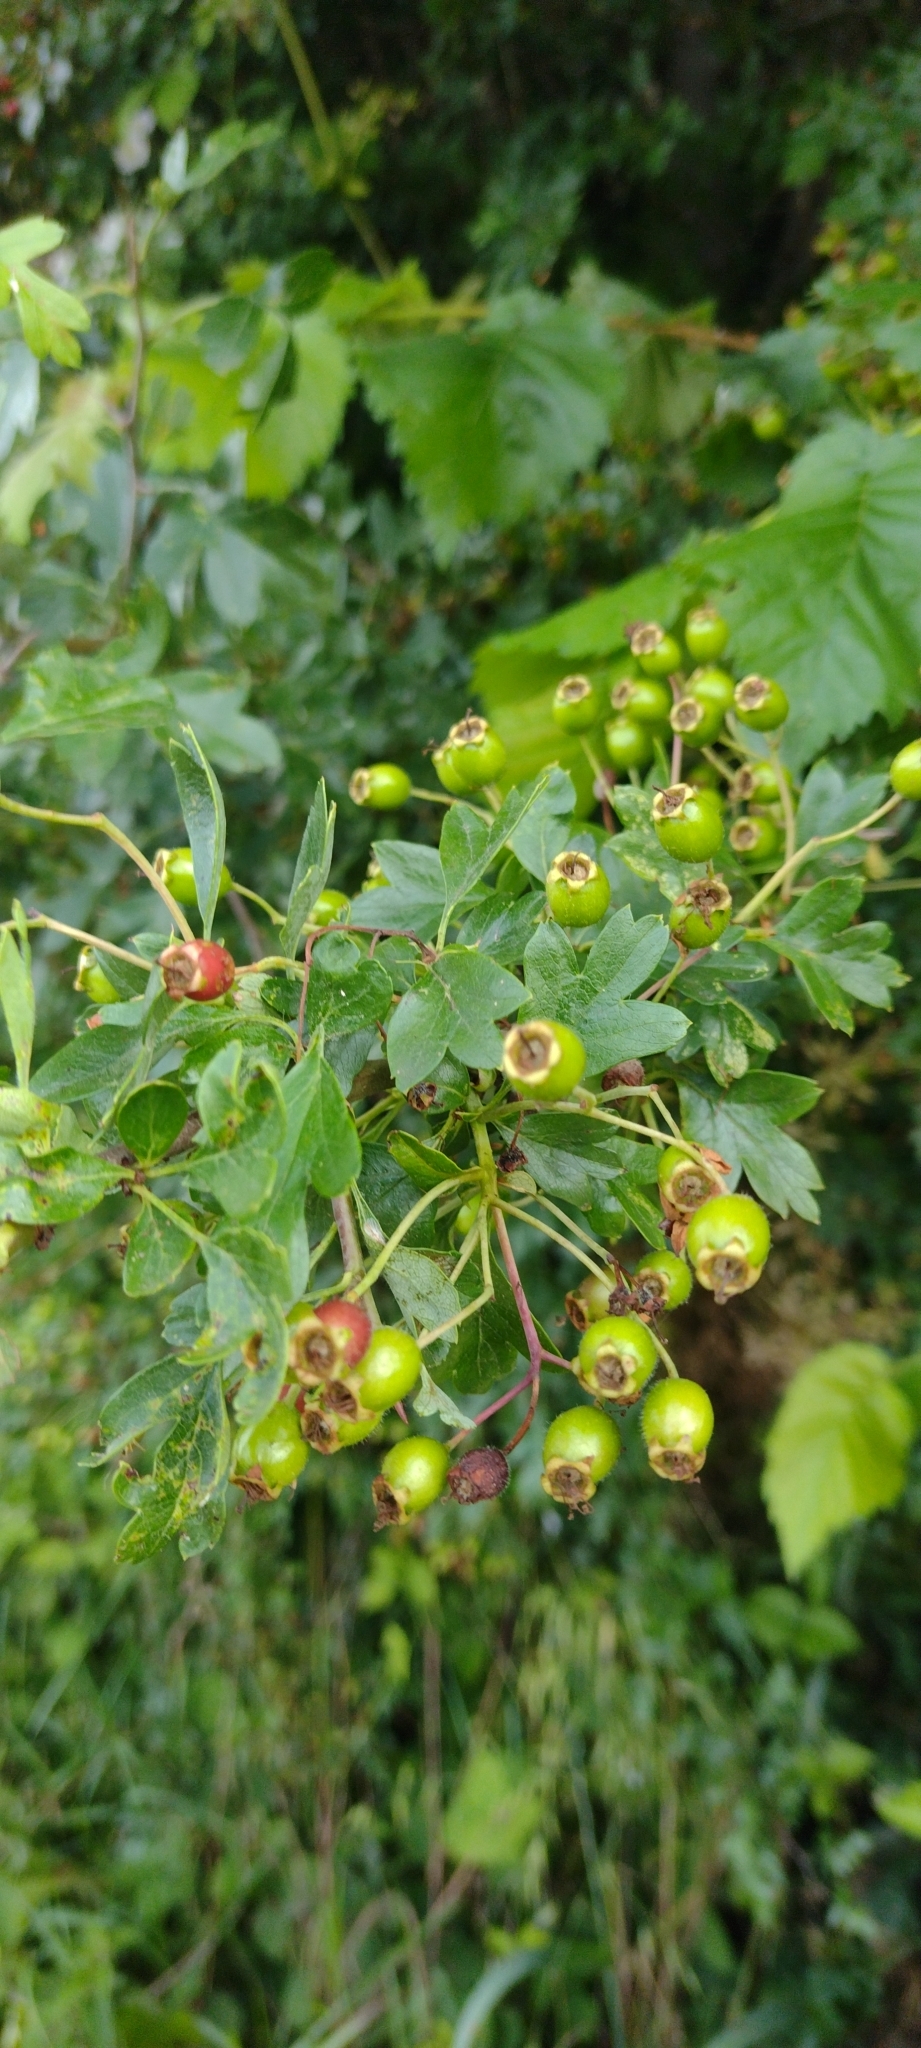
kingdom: Plantae
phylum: Tracheophyta
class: Magnoliopsida
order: Rosales
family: Rosaceae
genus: Crataegus
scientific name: Crataegus monogyna
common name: Hawthorn
